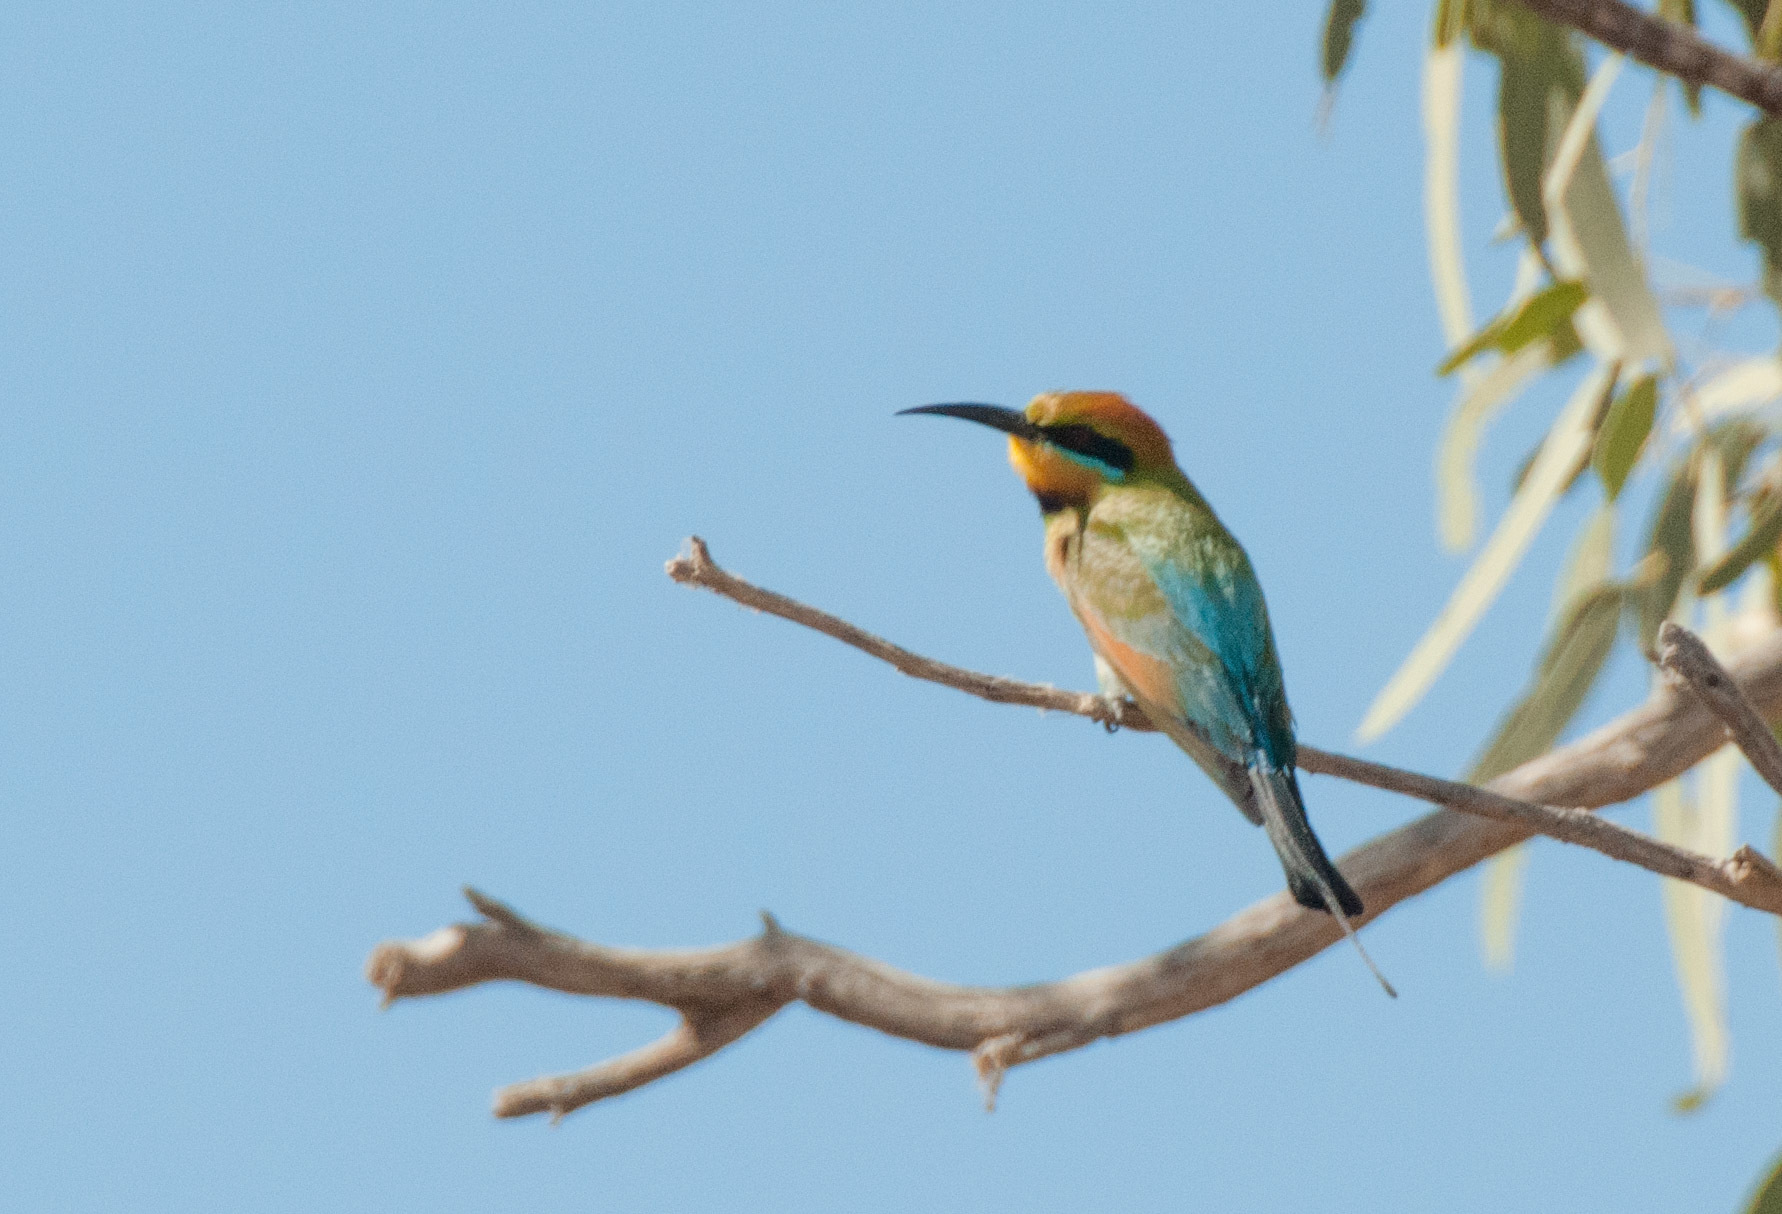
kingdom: Animalia
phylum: Chordata
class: Aves
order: Coraciiformes
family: Meropidae
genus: Merops
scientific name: Merops ornatus
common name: Rainbow bee-eater
